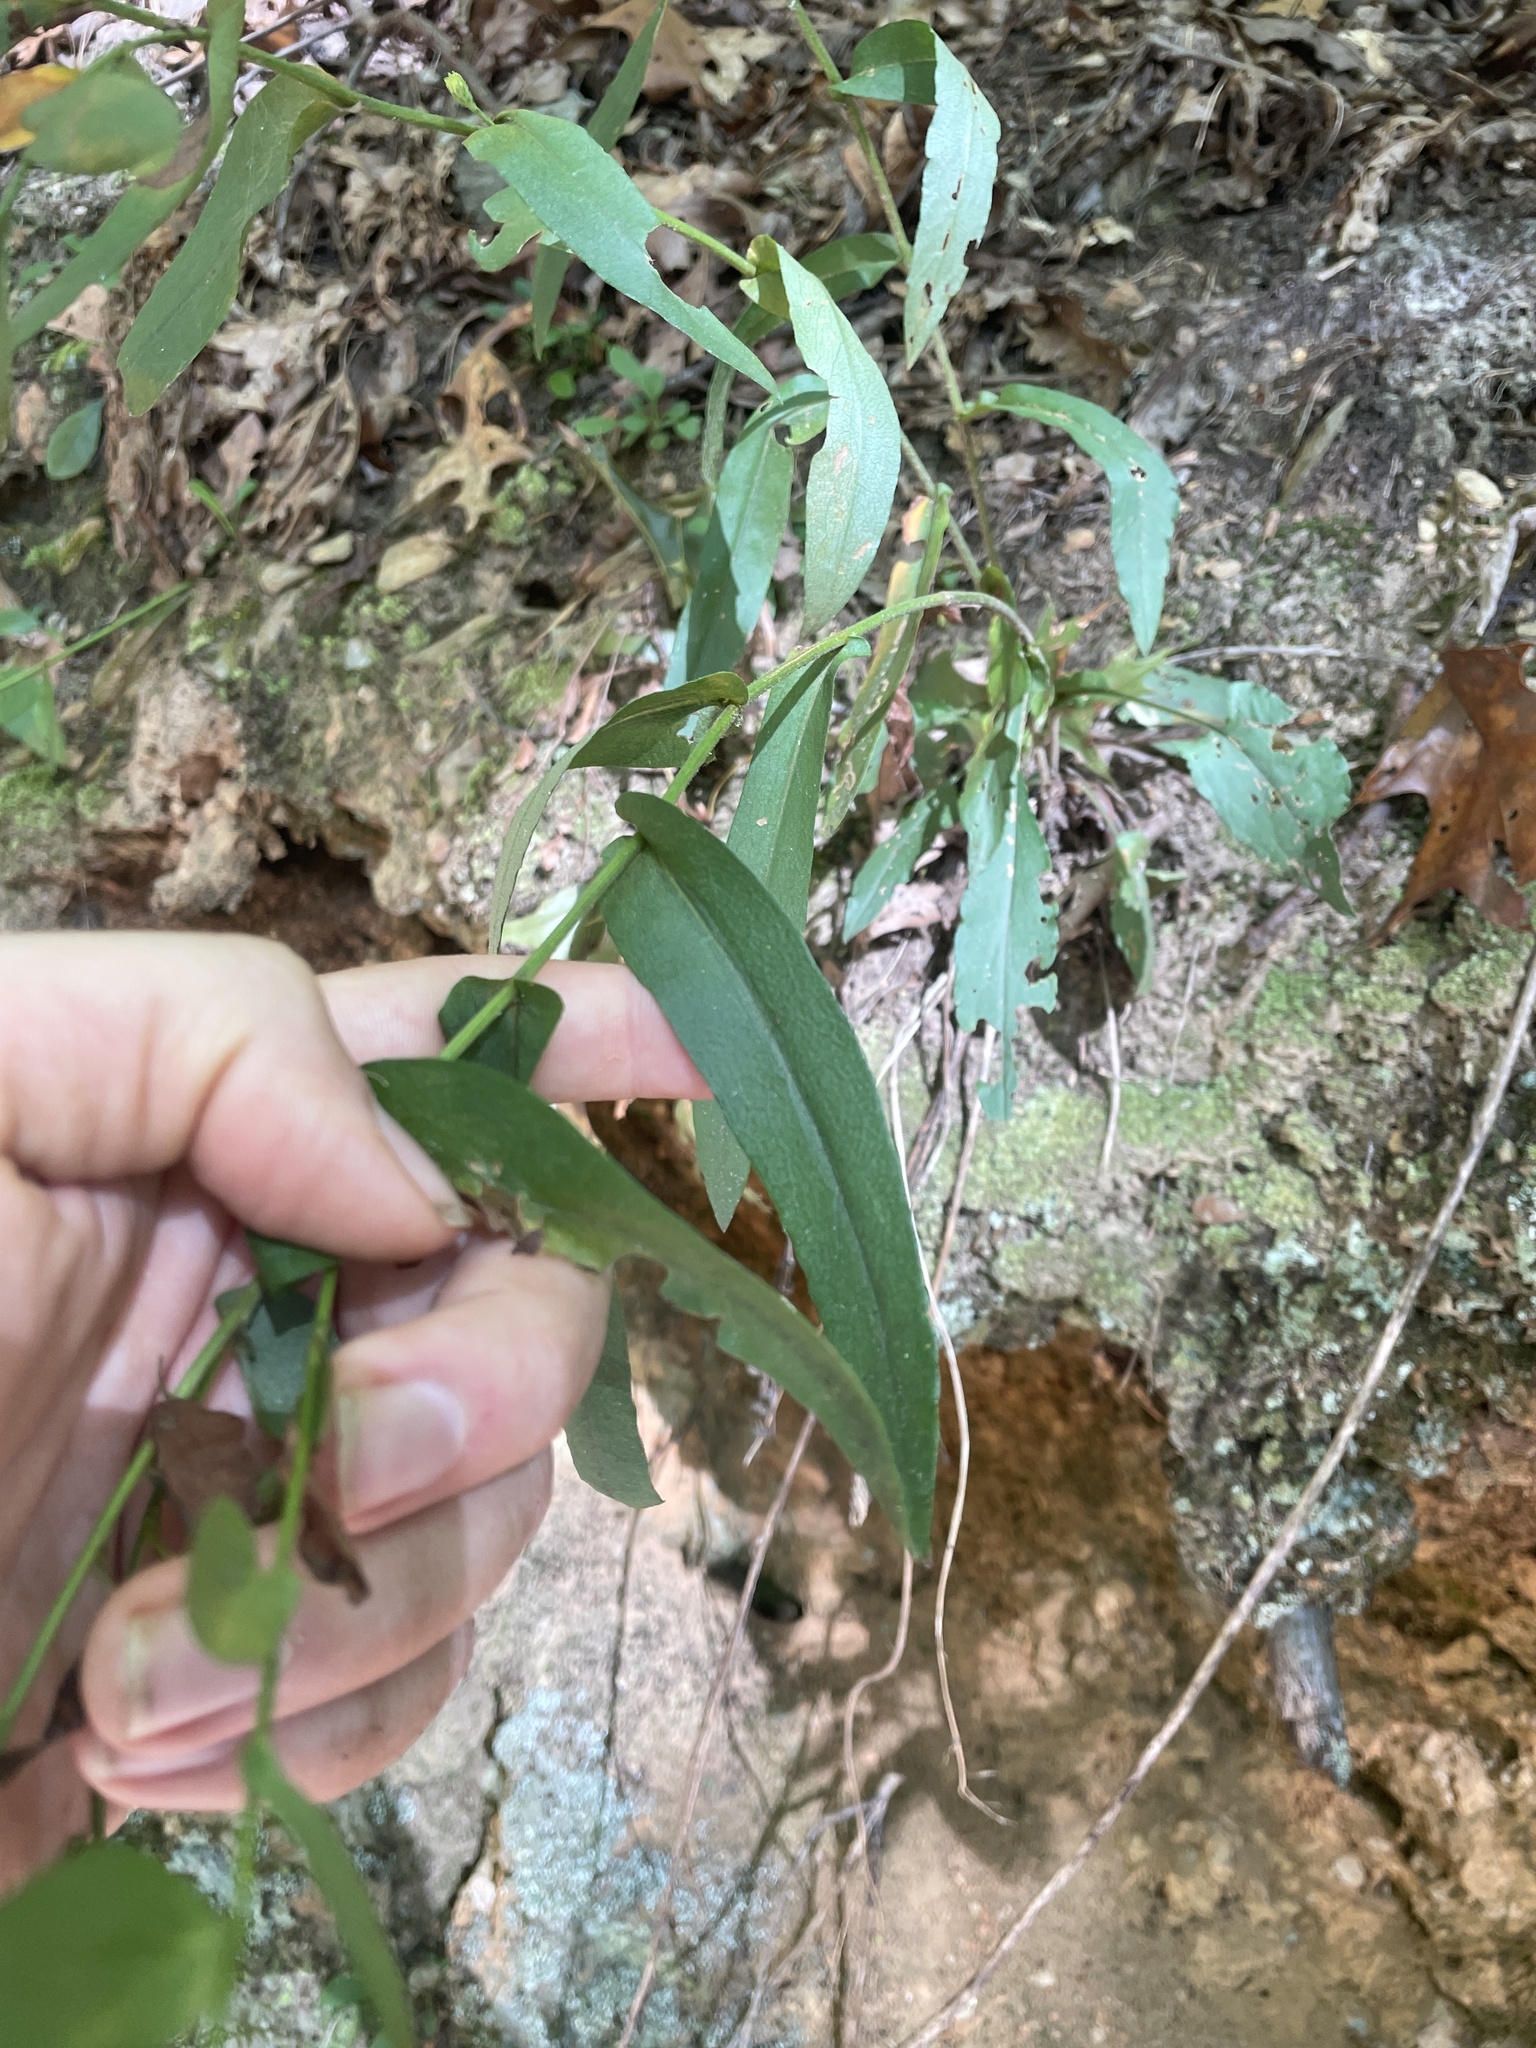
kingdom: Plantae
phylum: Tracheophyta
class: Magnoliopsida
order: Asterales
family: Asteraceae
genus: Symphyotrichum
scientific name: Symphyotrichum laeve
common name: Glaucous aster
